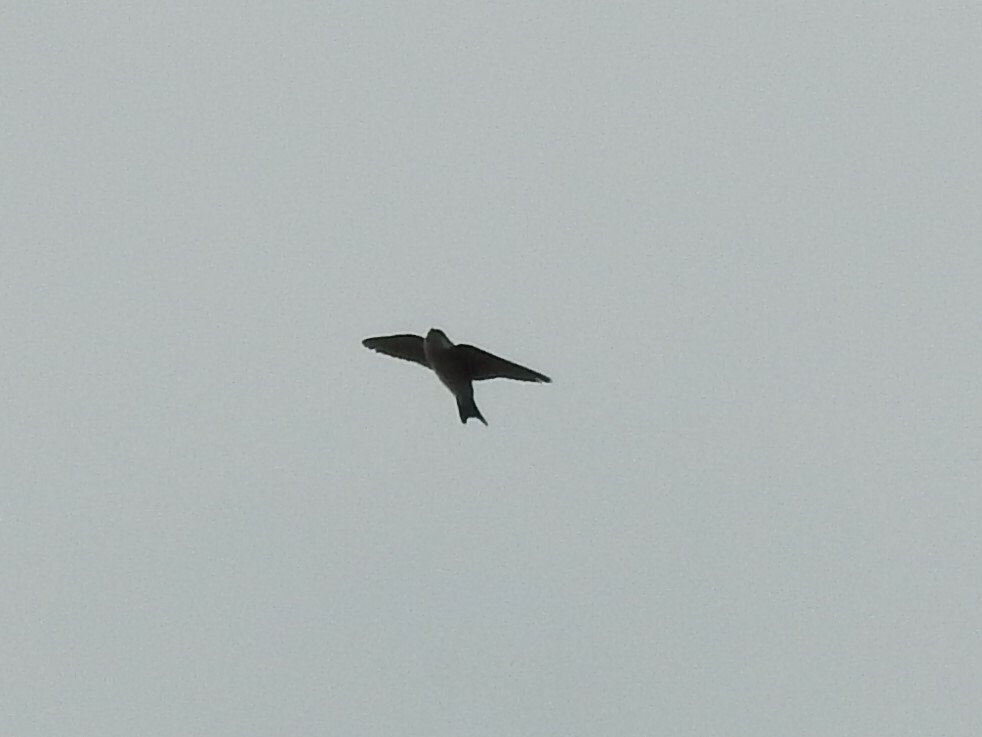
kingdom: Animalia
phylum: Chordata
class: Aves
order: Passeriformes
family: Hirundinidae
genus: Delichon
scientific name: Delichon urbicum
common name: Common house martin
